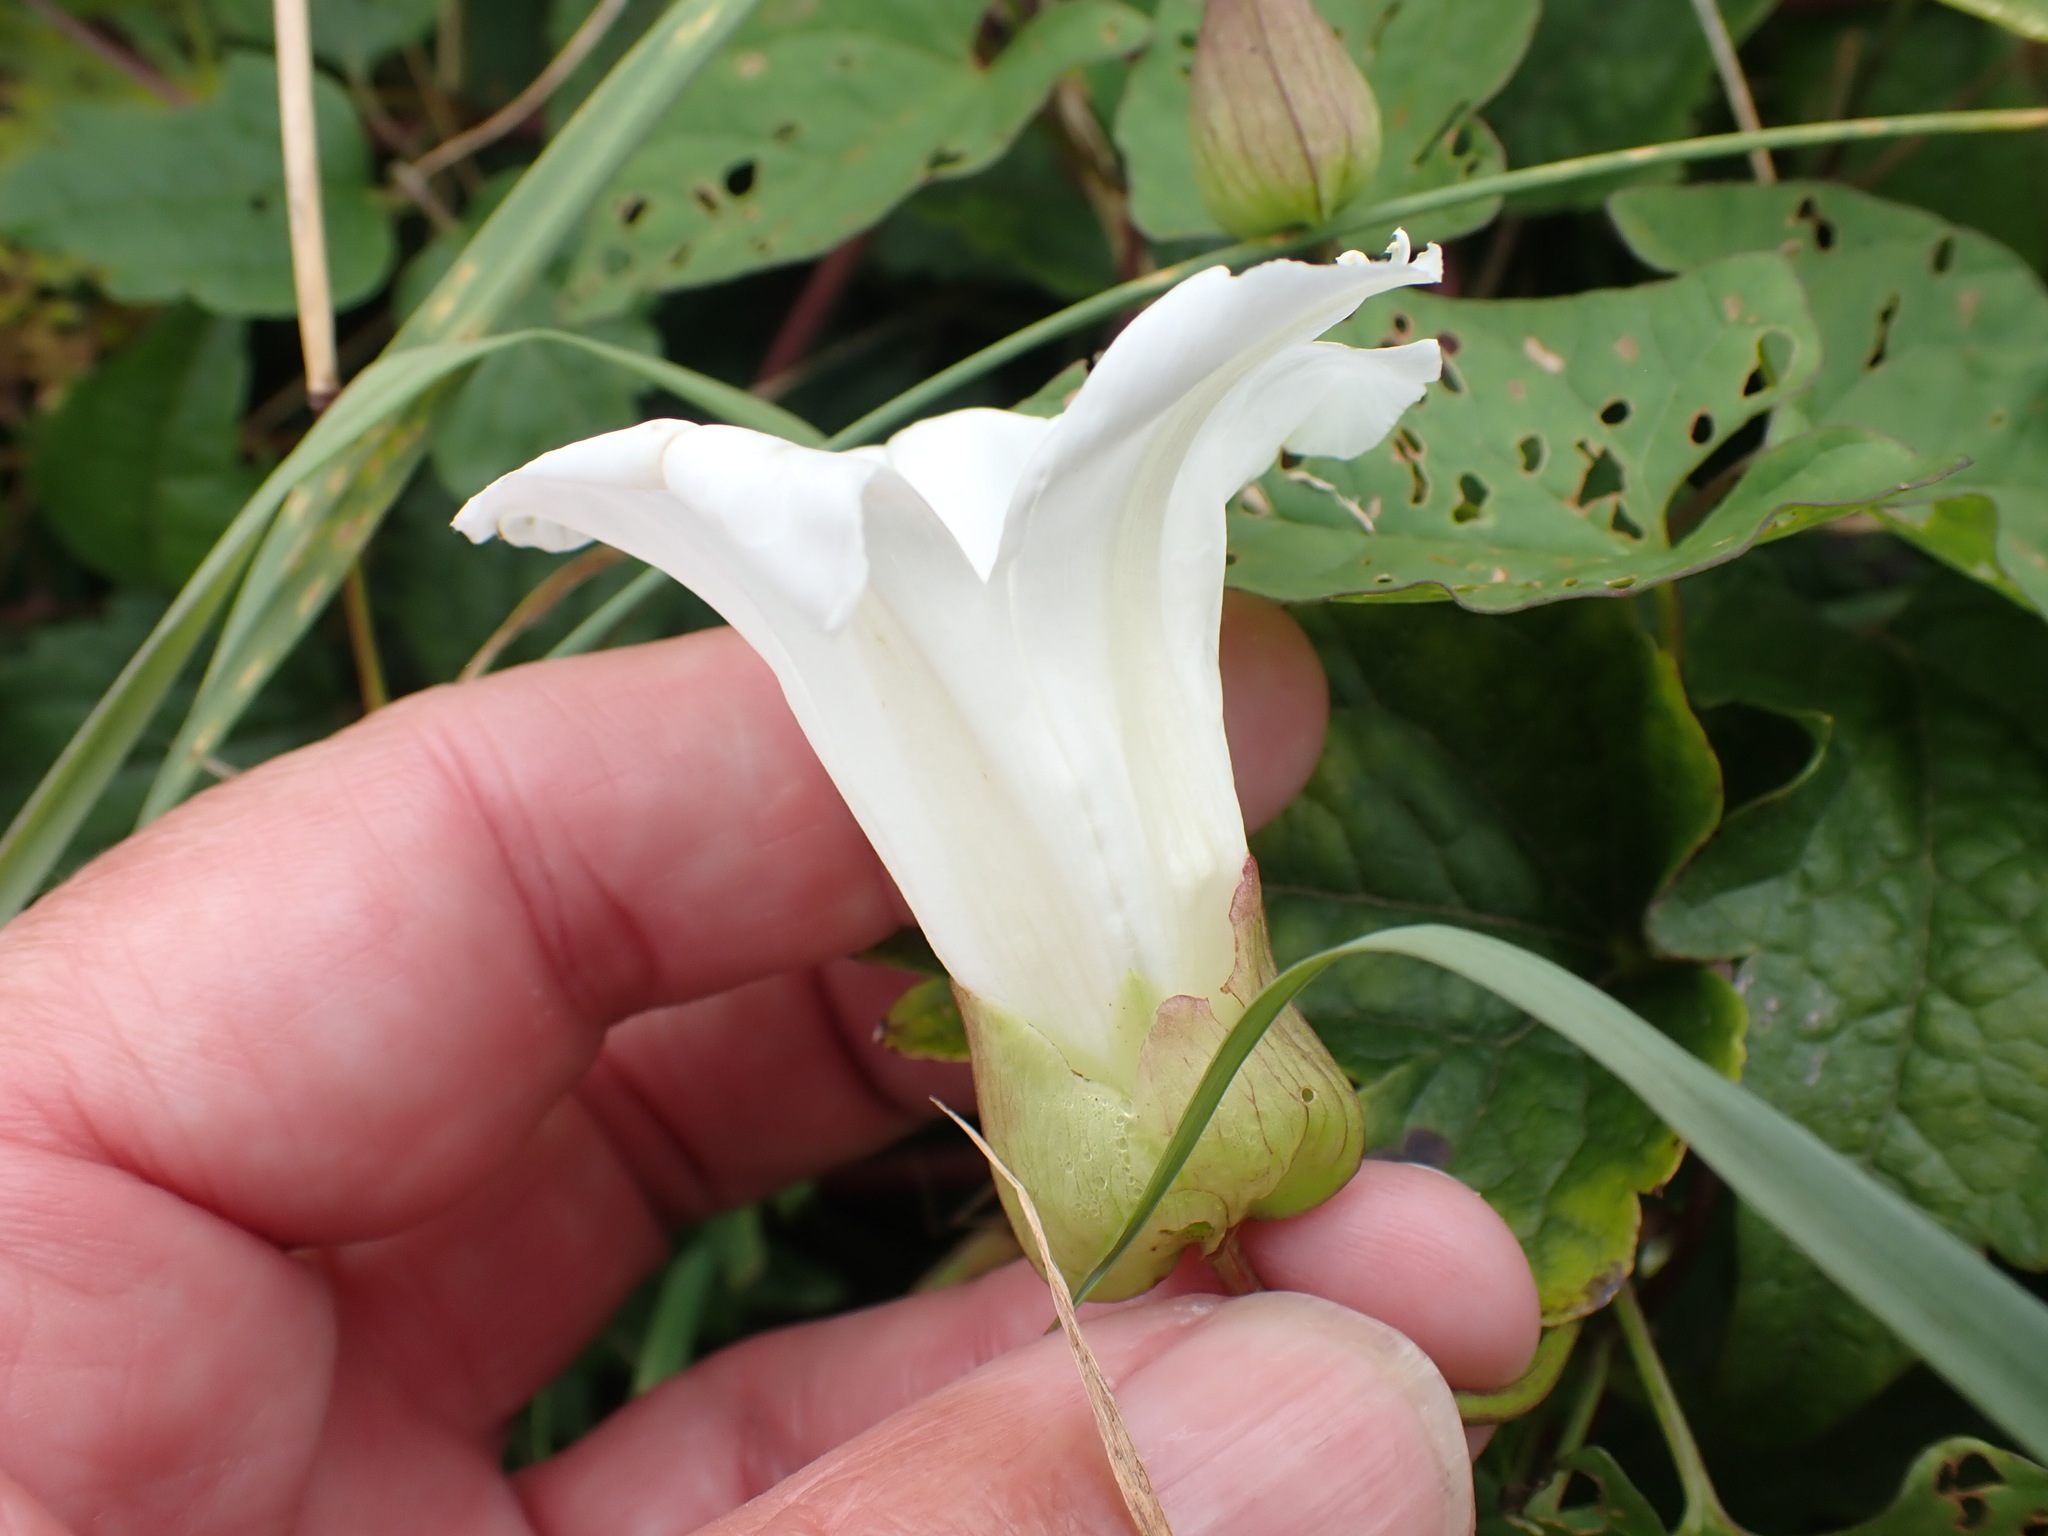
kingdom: Plantae
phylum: Tracheophyta
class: Magnoliopsida
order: Solanales
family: Convolvulaceae
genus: Calystegia
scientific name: Calystegia sepium
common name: Hedge bindweed
